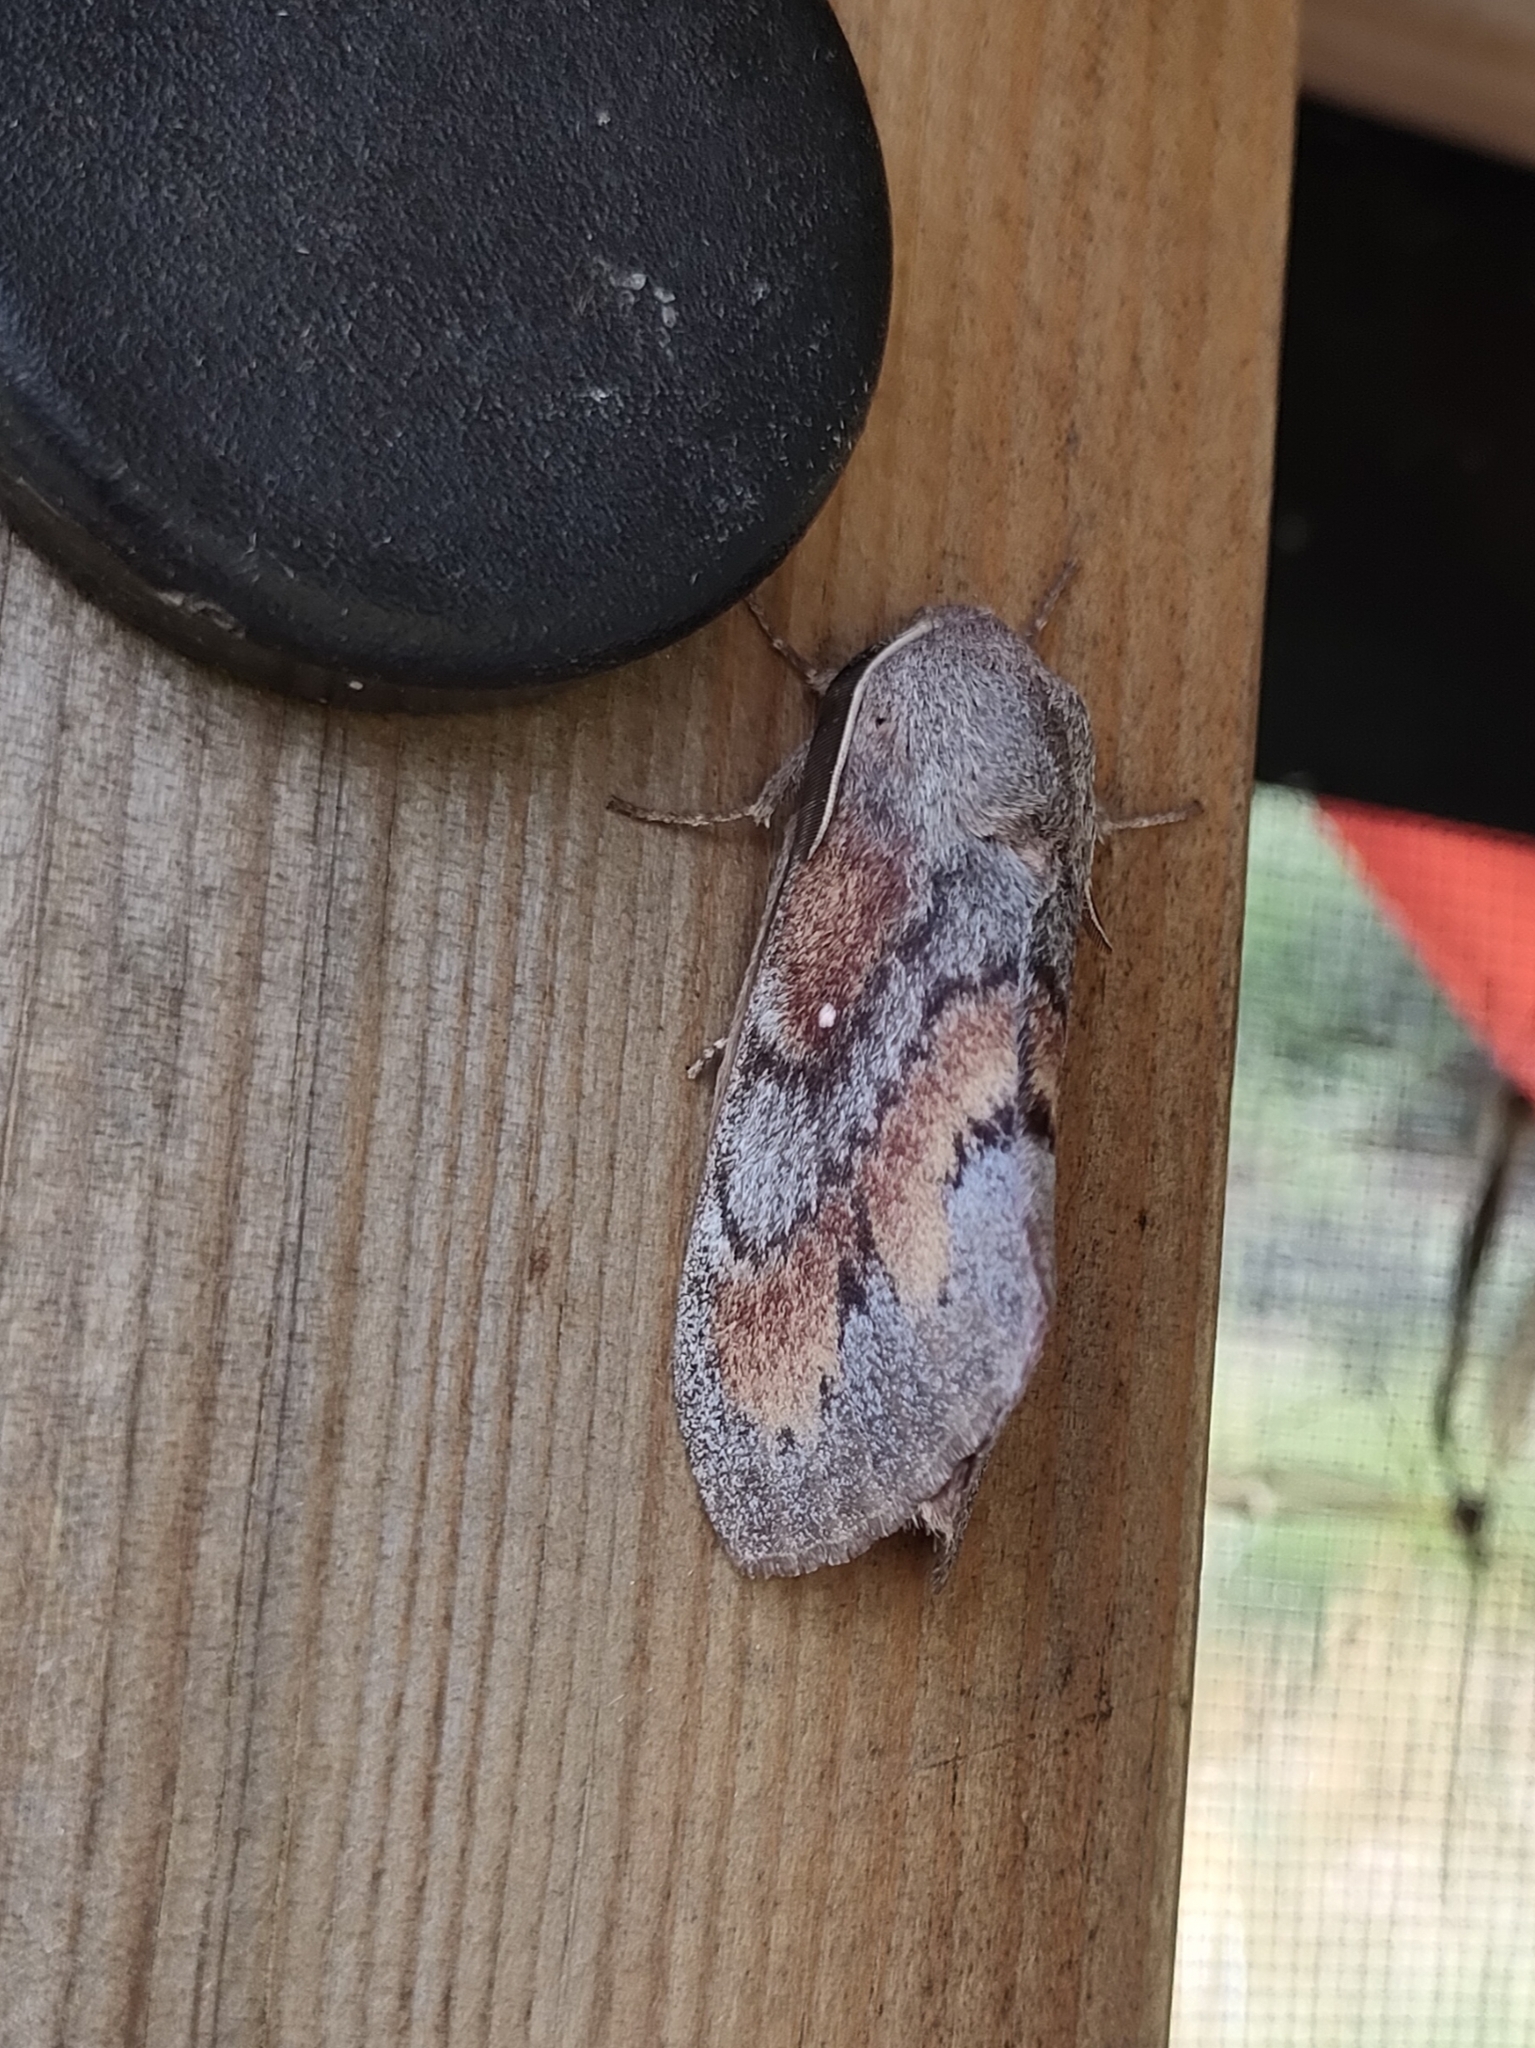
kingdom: Animalia
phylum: Arthropoda
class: Insecta
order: Lepidoptera
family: Lasiocampidae
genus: Dendrolimus
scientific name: Dendrolimus pini
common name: Pine-tree lappet
